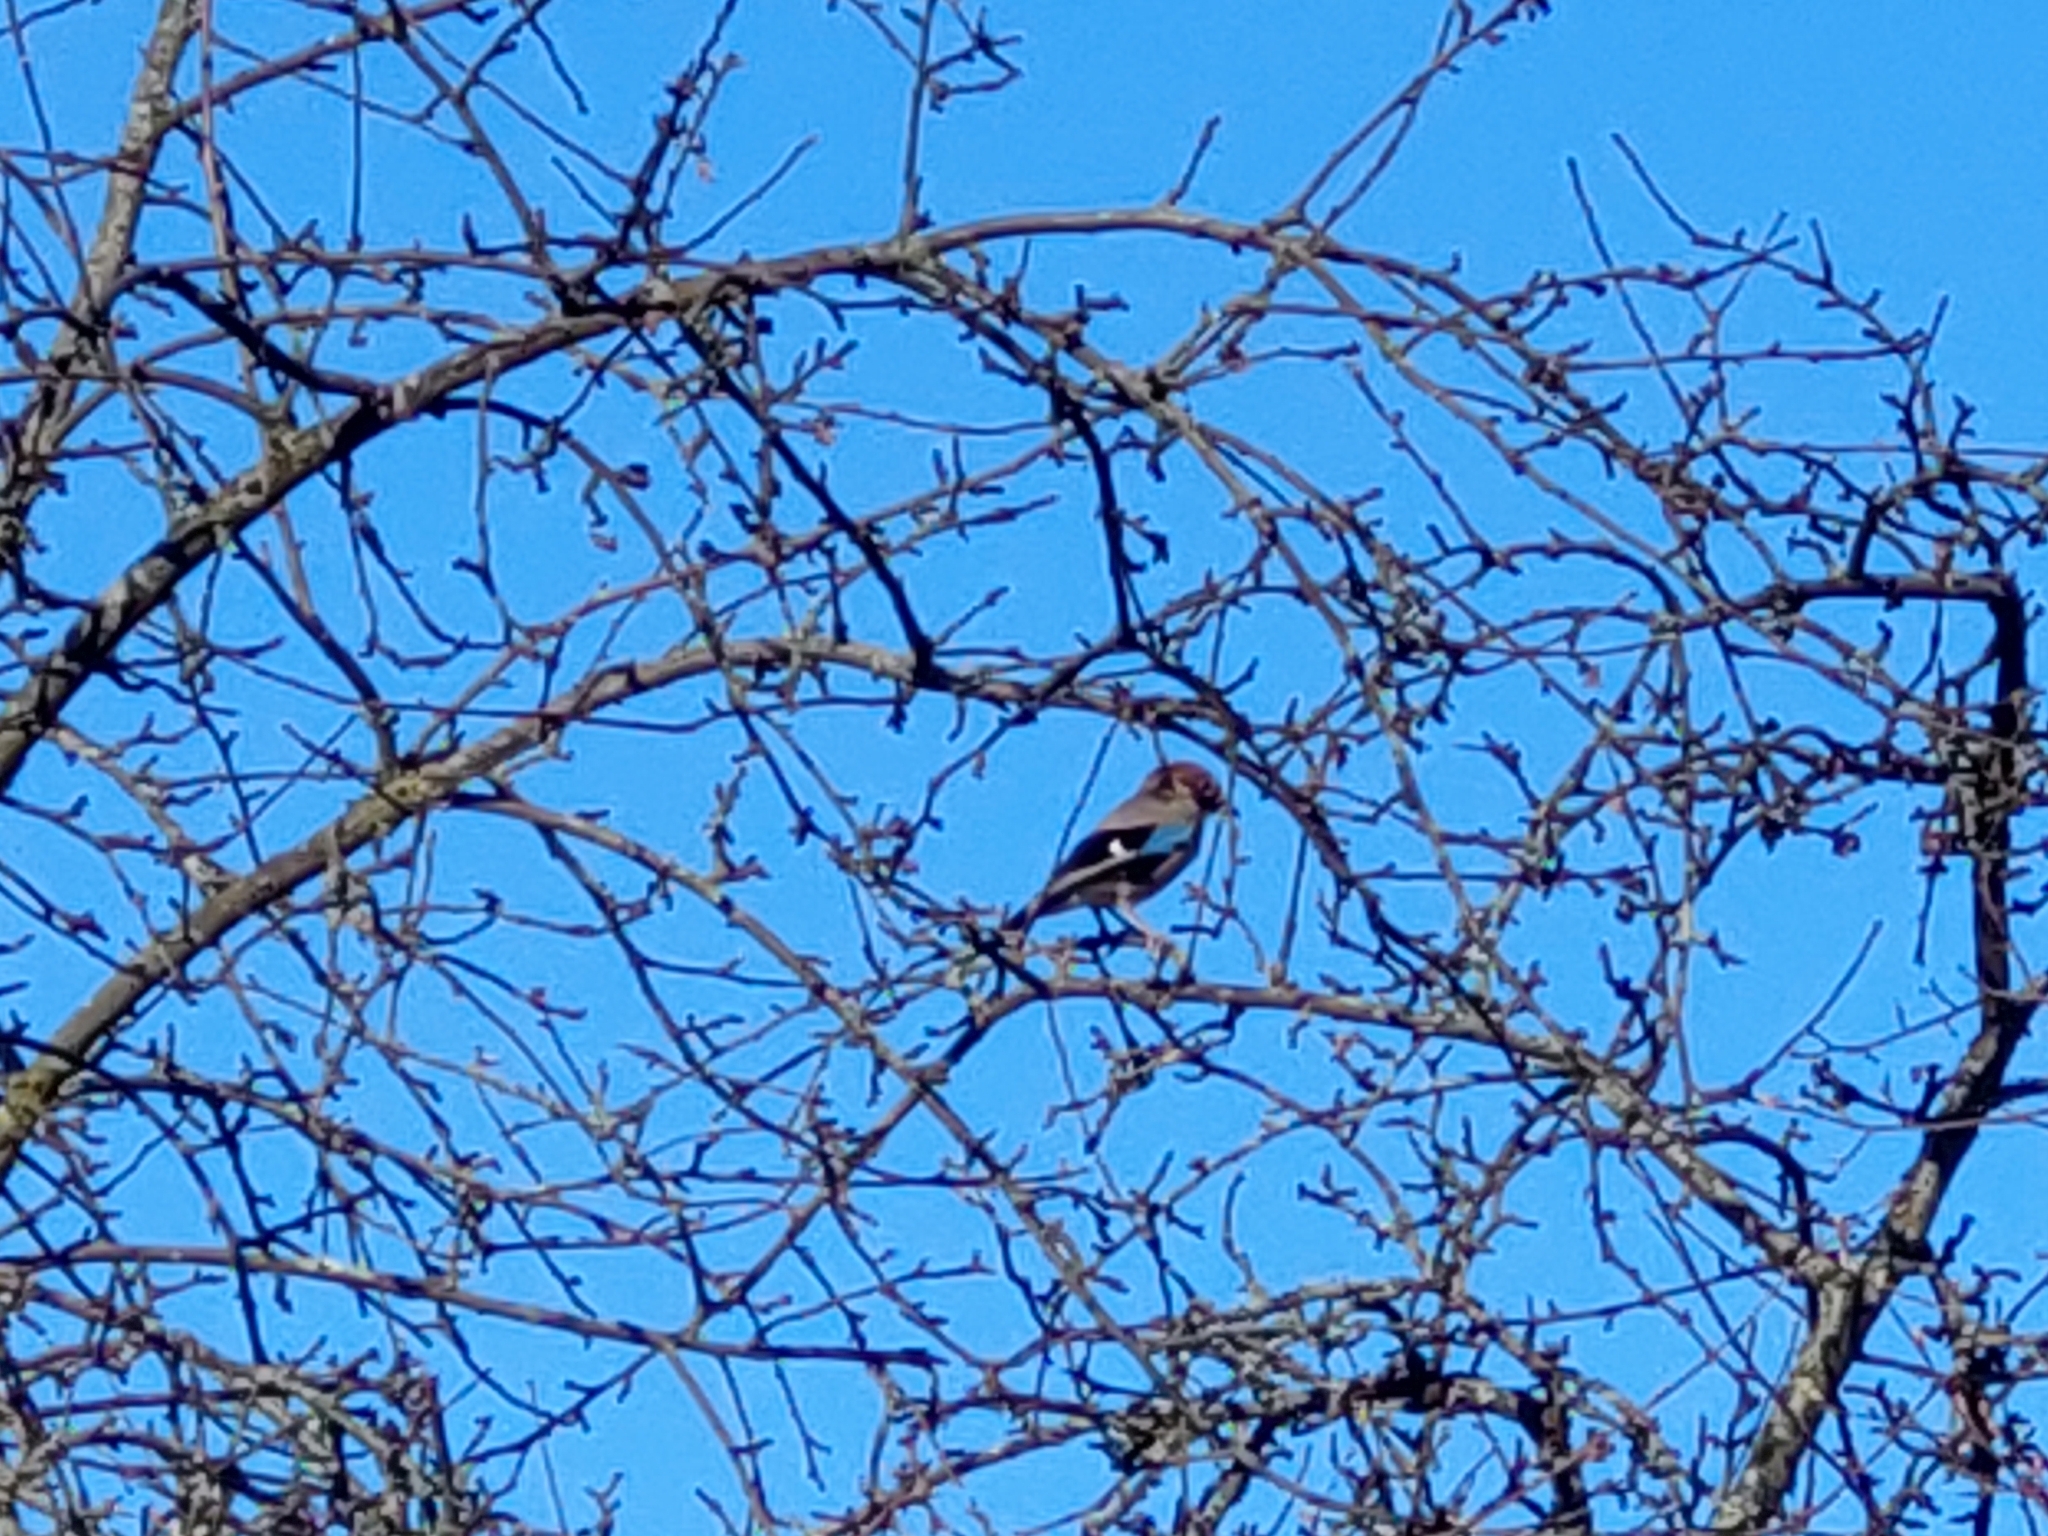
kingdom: Animalia
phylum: Chordata
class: Aves
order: Passeriformes
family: Corvidae
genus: Garrulus
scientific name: Garrulus glandarius
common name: Eurasian jay
